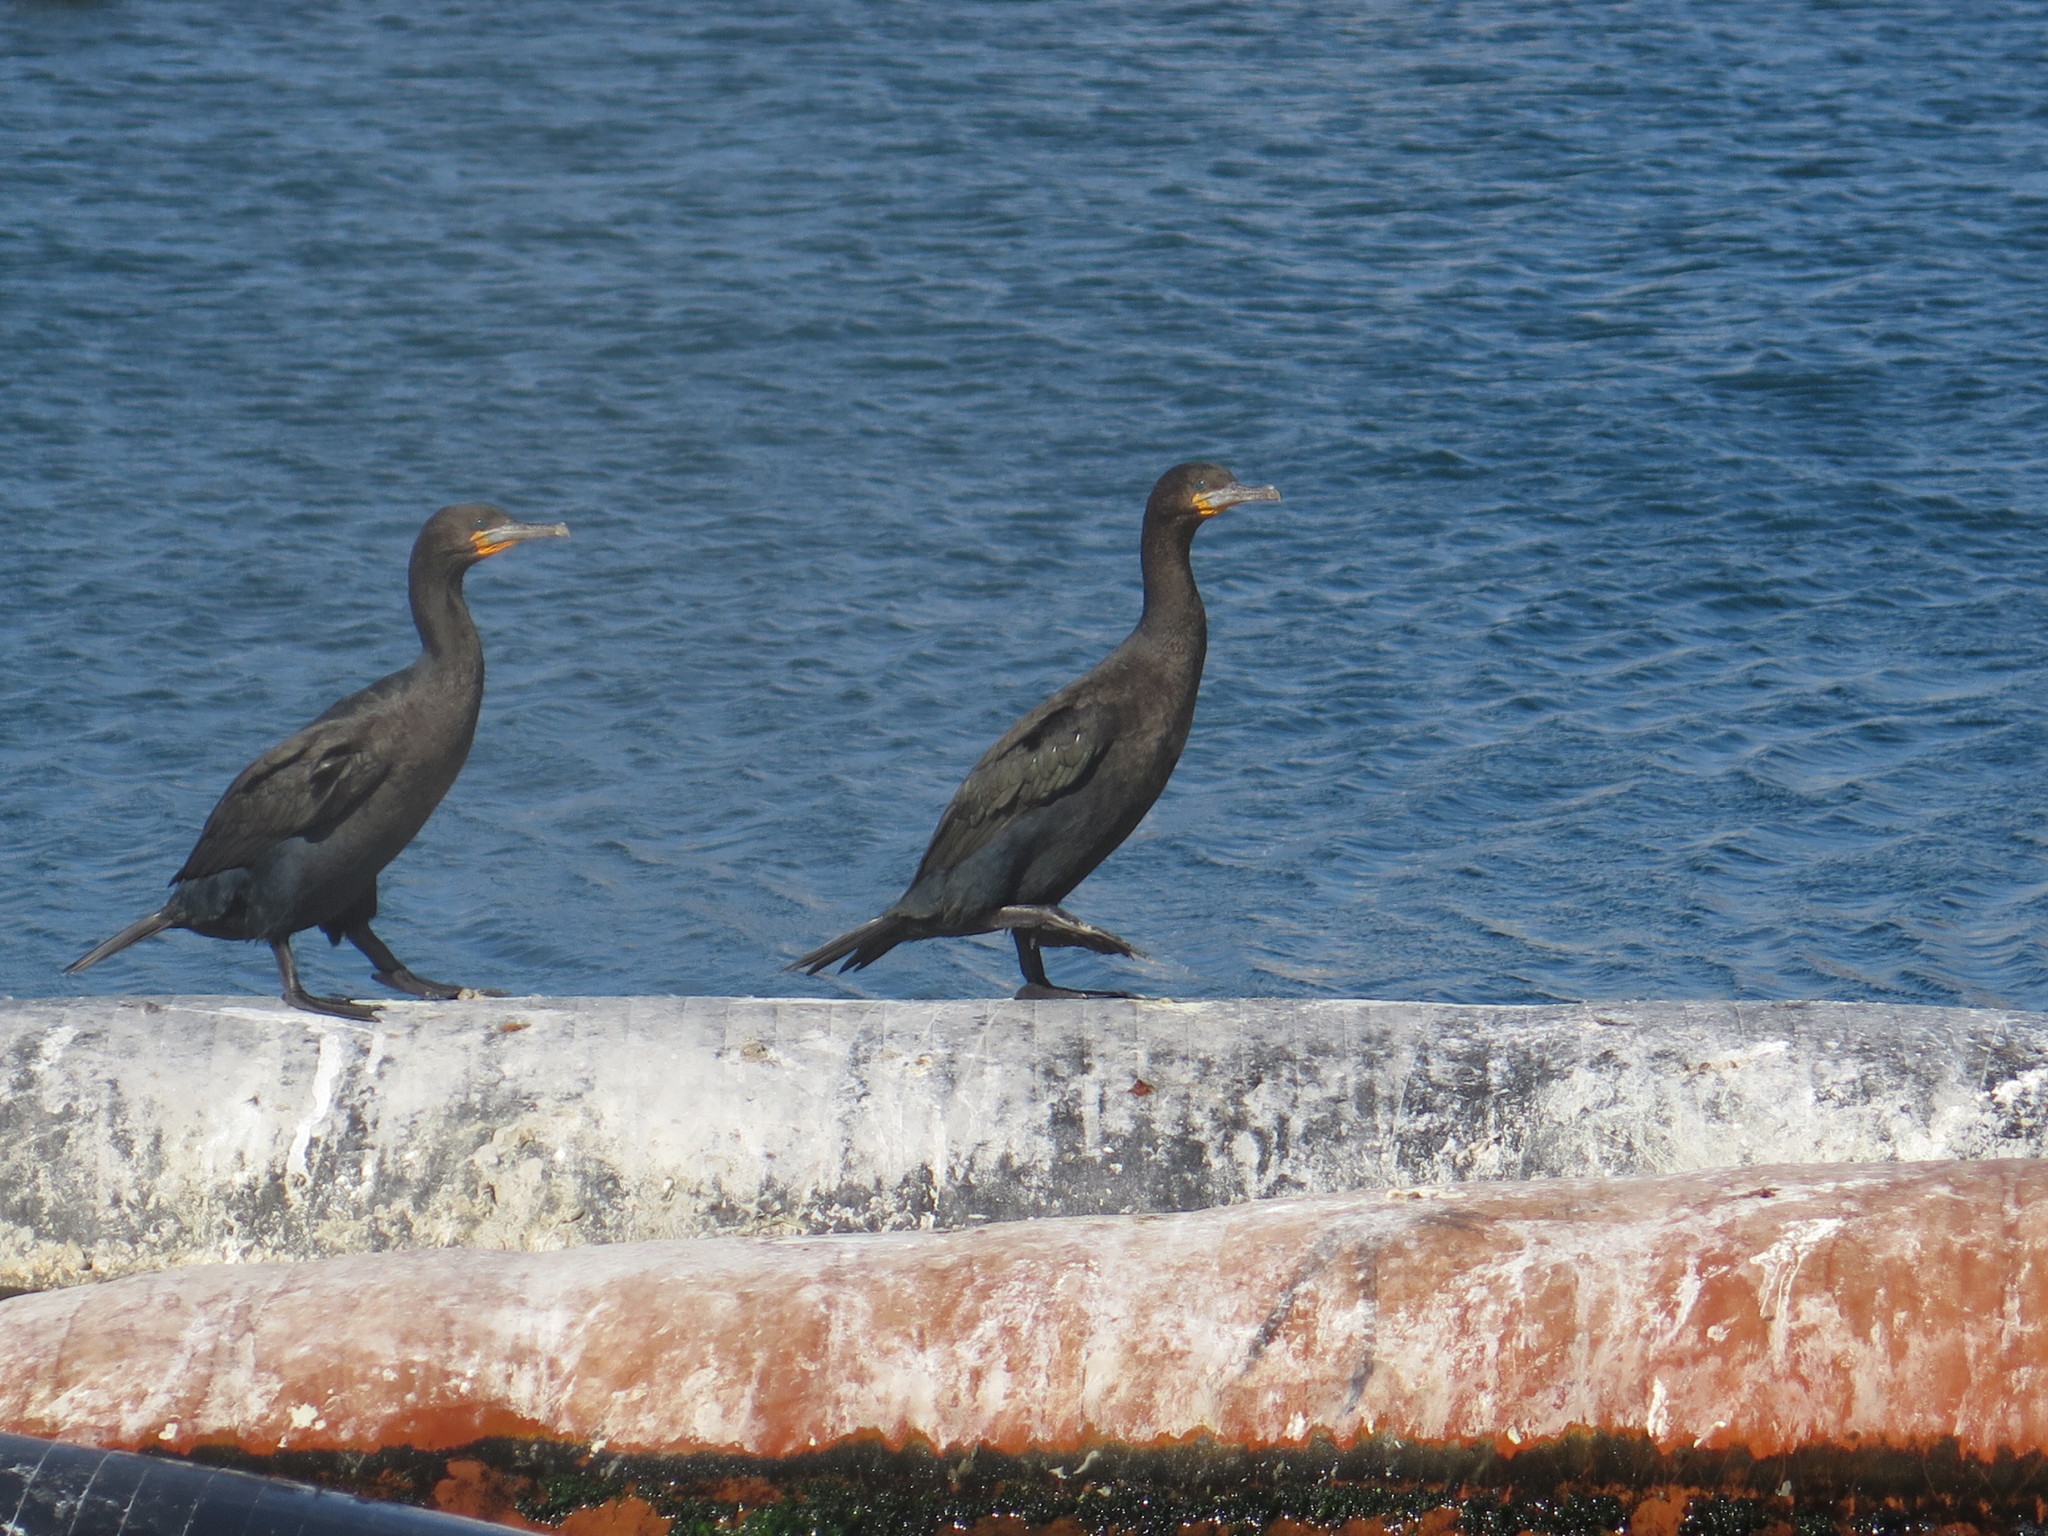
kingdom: Animalia
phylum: Chordata
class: Aves
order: Suliformes
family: Phalacrocoracidae
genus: Phalacrocorax
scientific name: Phalacrocorax capensis
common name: Cape cormorant
